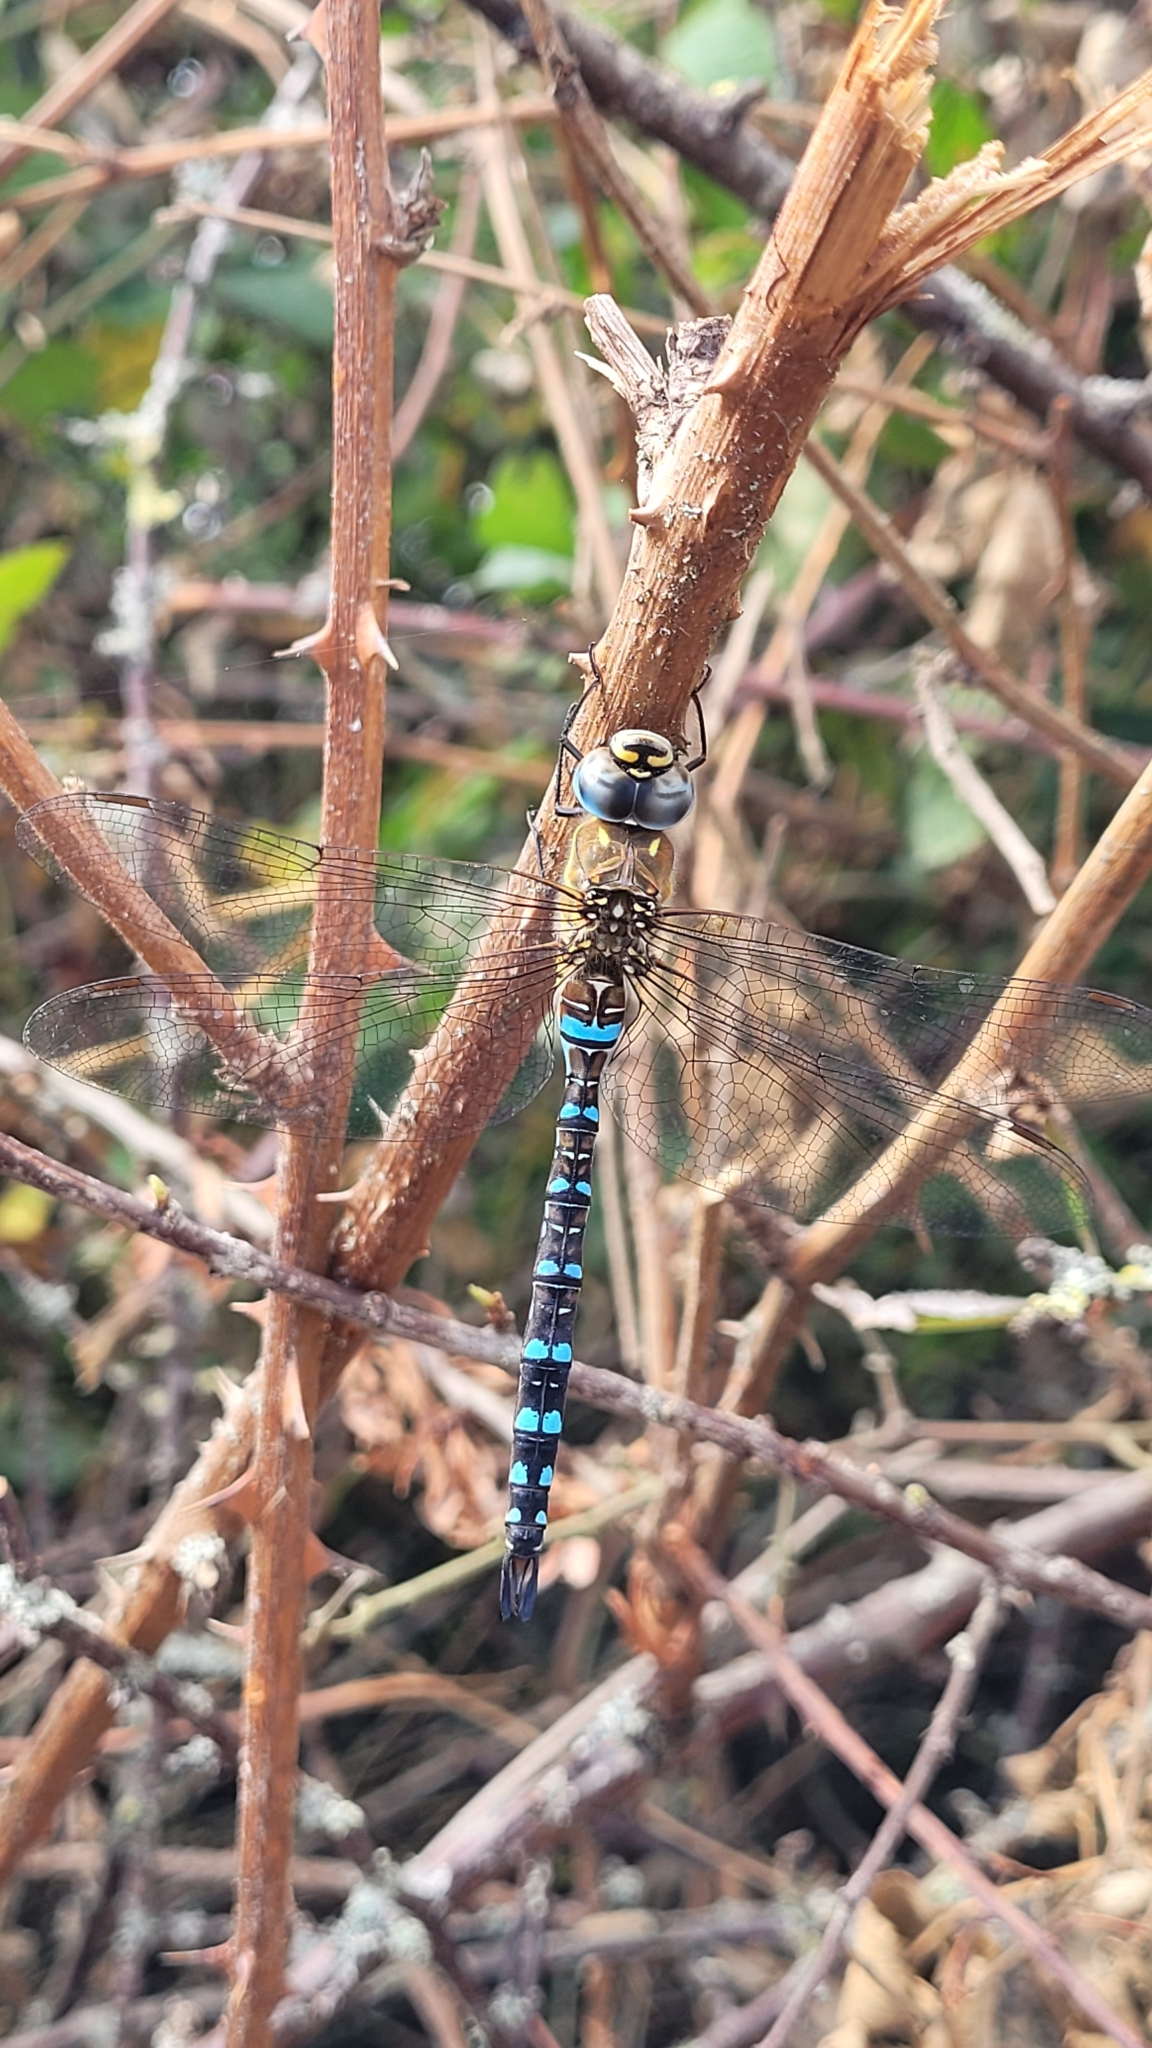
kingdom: Animalia
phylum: Arthropoda
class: Insecta
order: Odonata
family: Aeshnidae
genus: Aeshna
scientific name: Aeshna mixta
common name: Migrant hawker
